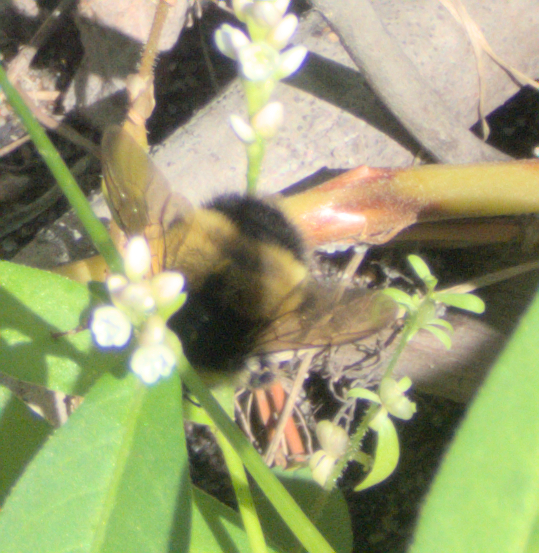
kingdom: Animalia
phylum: Arthropoda
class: Insecta
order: Hymenoptera
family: Apidae
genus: Bombus
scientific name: Bombus terricola
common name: Yellow-banded bumble bee
